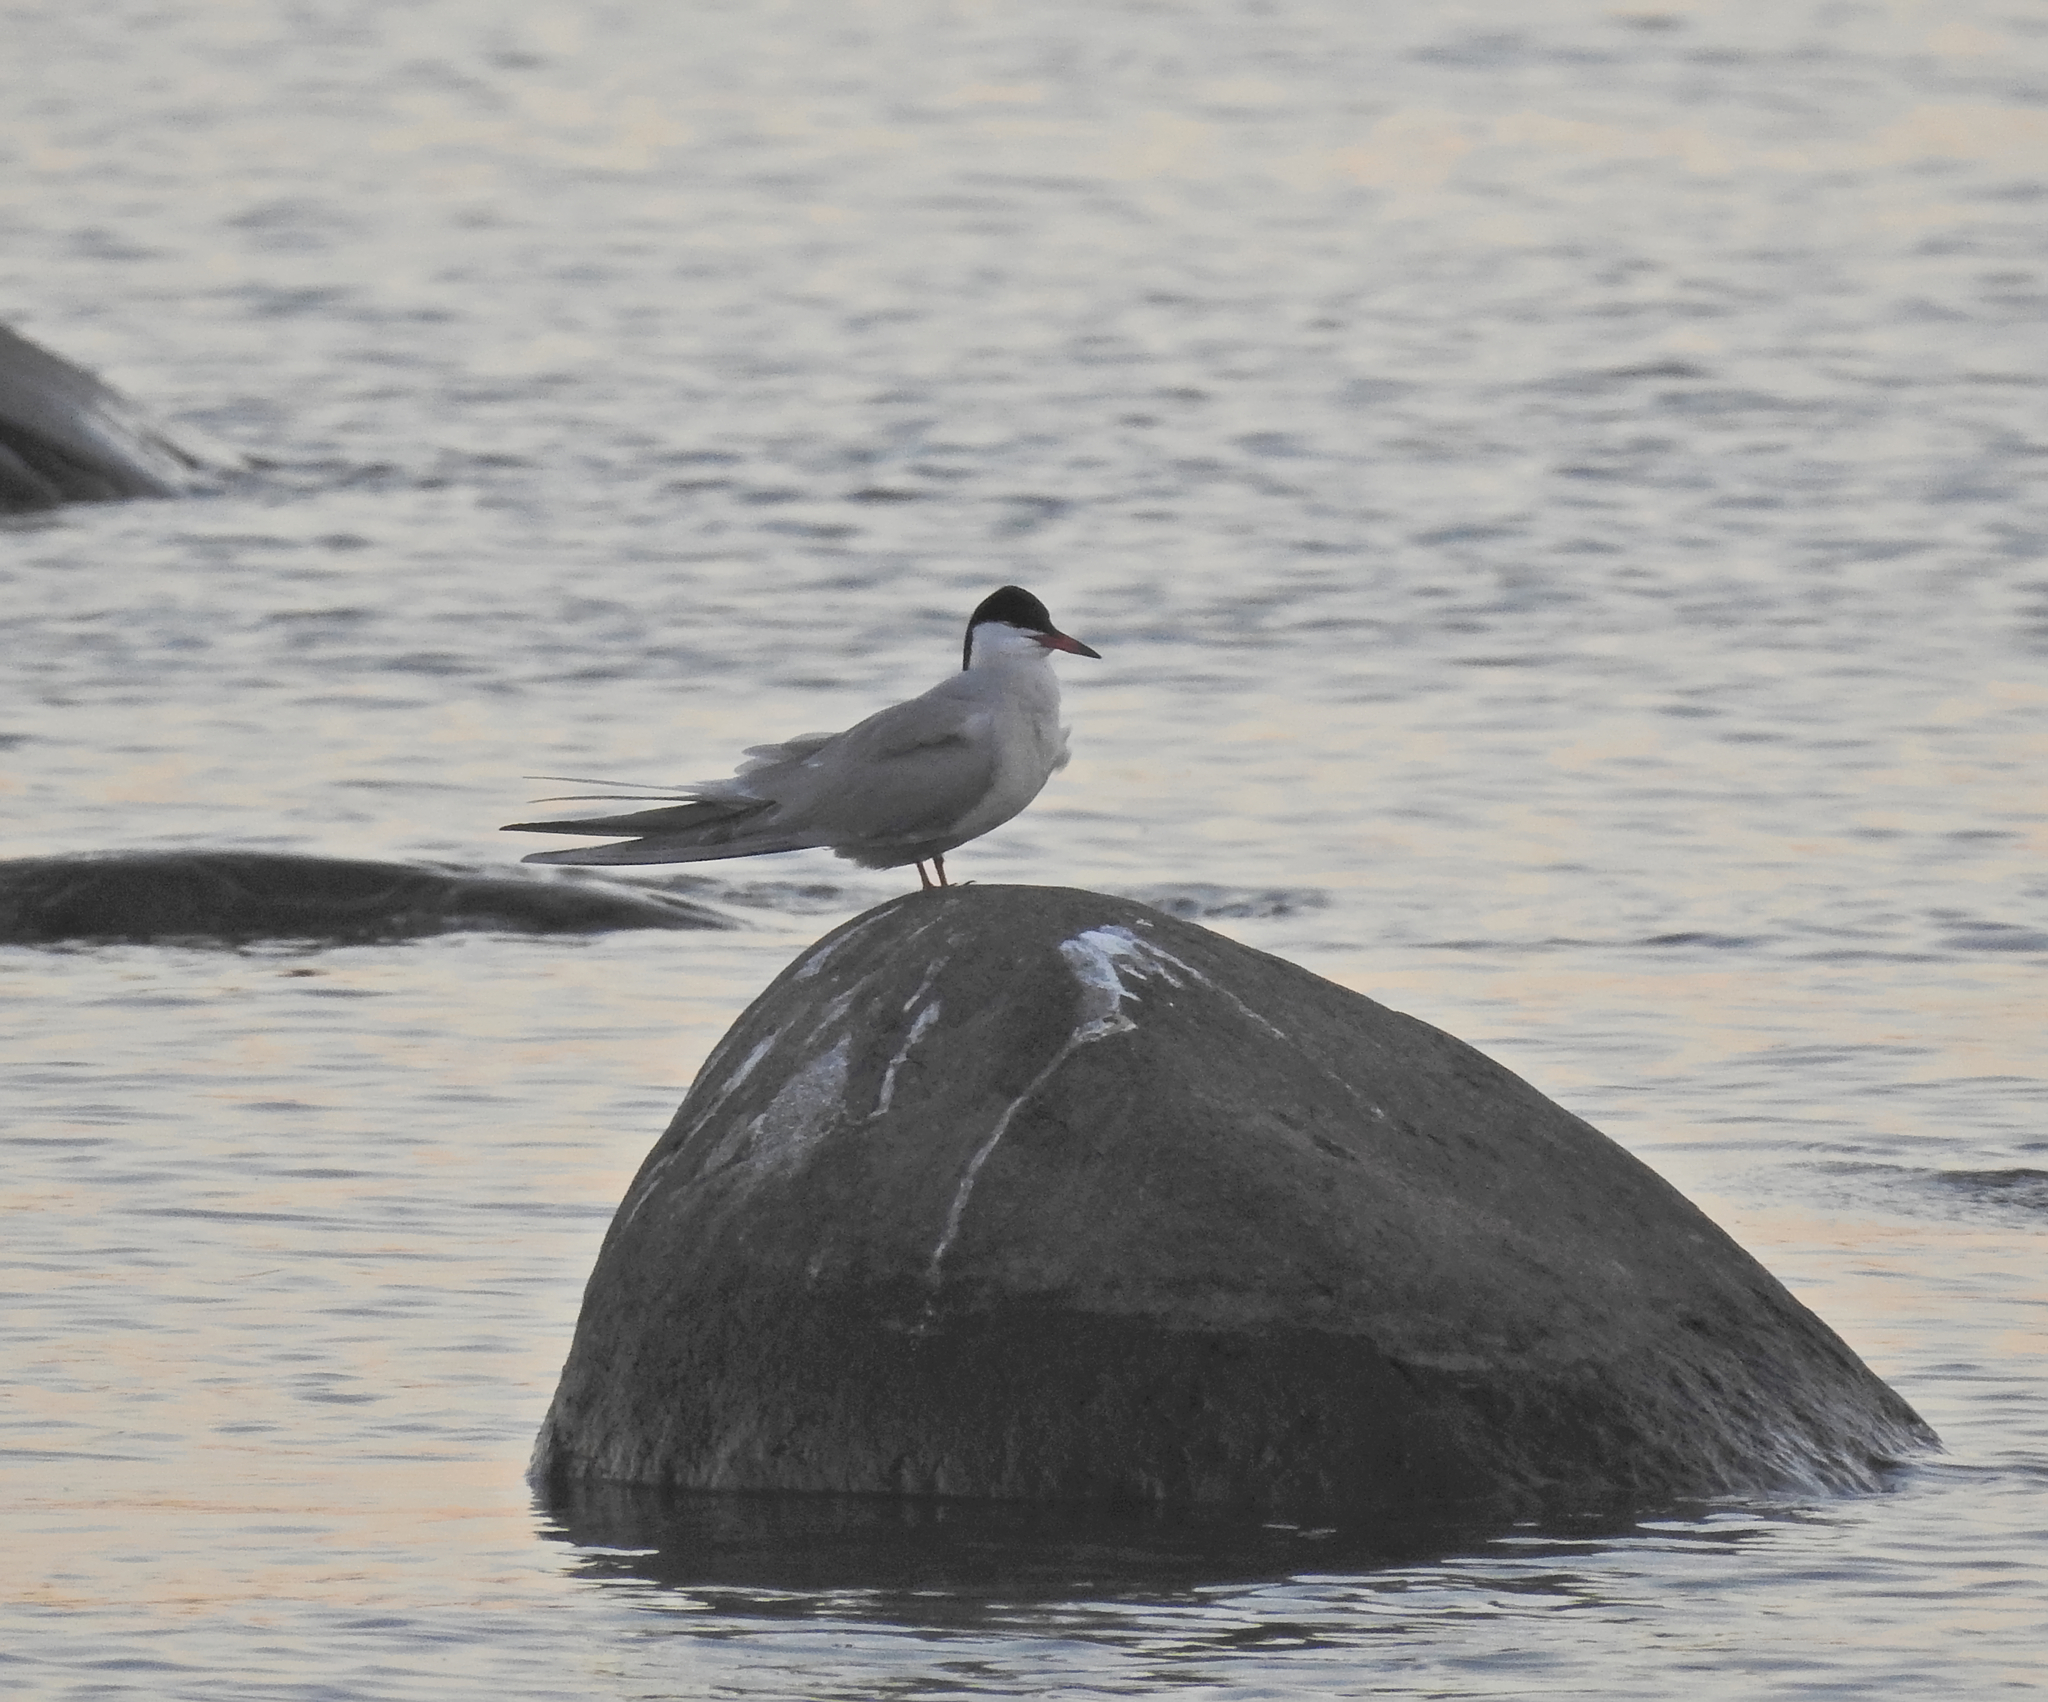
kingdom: Animalia
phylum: Chordata
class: Aves
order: Charadriiformes
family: Laridae
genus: Sterna
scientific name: Sterna hirundo
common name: Common tern
